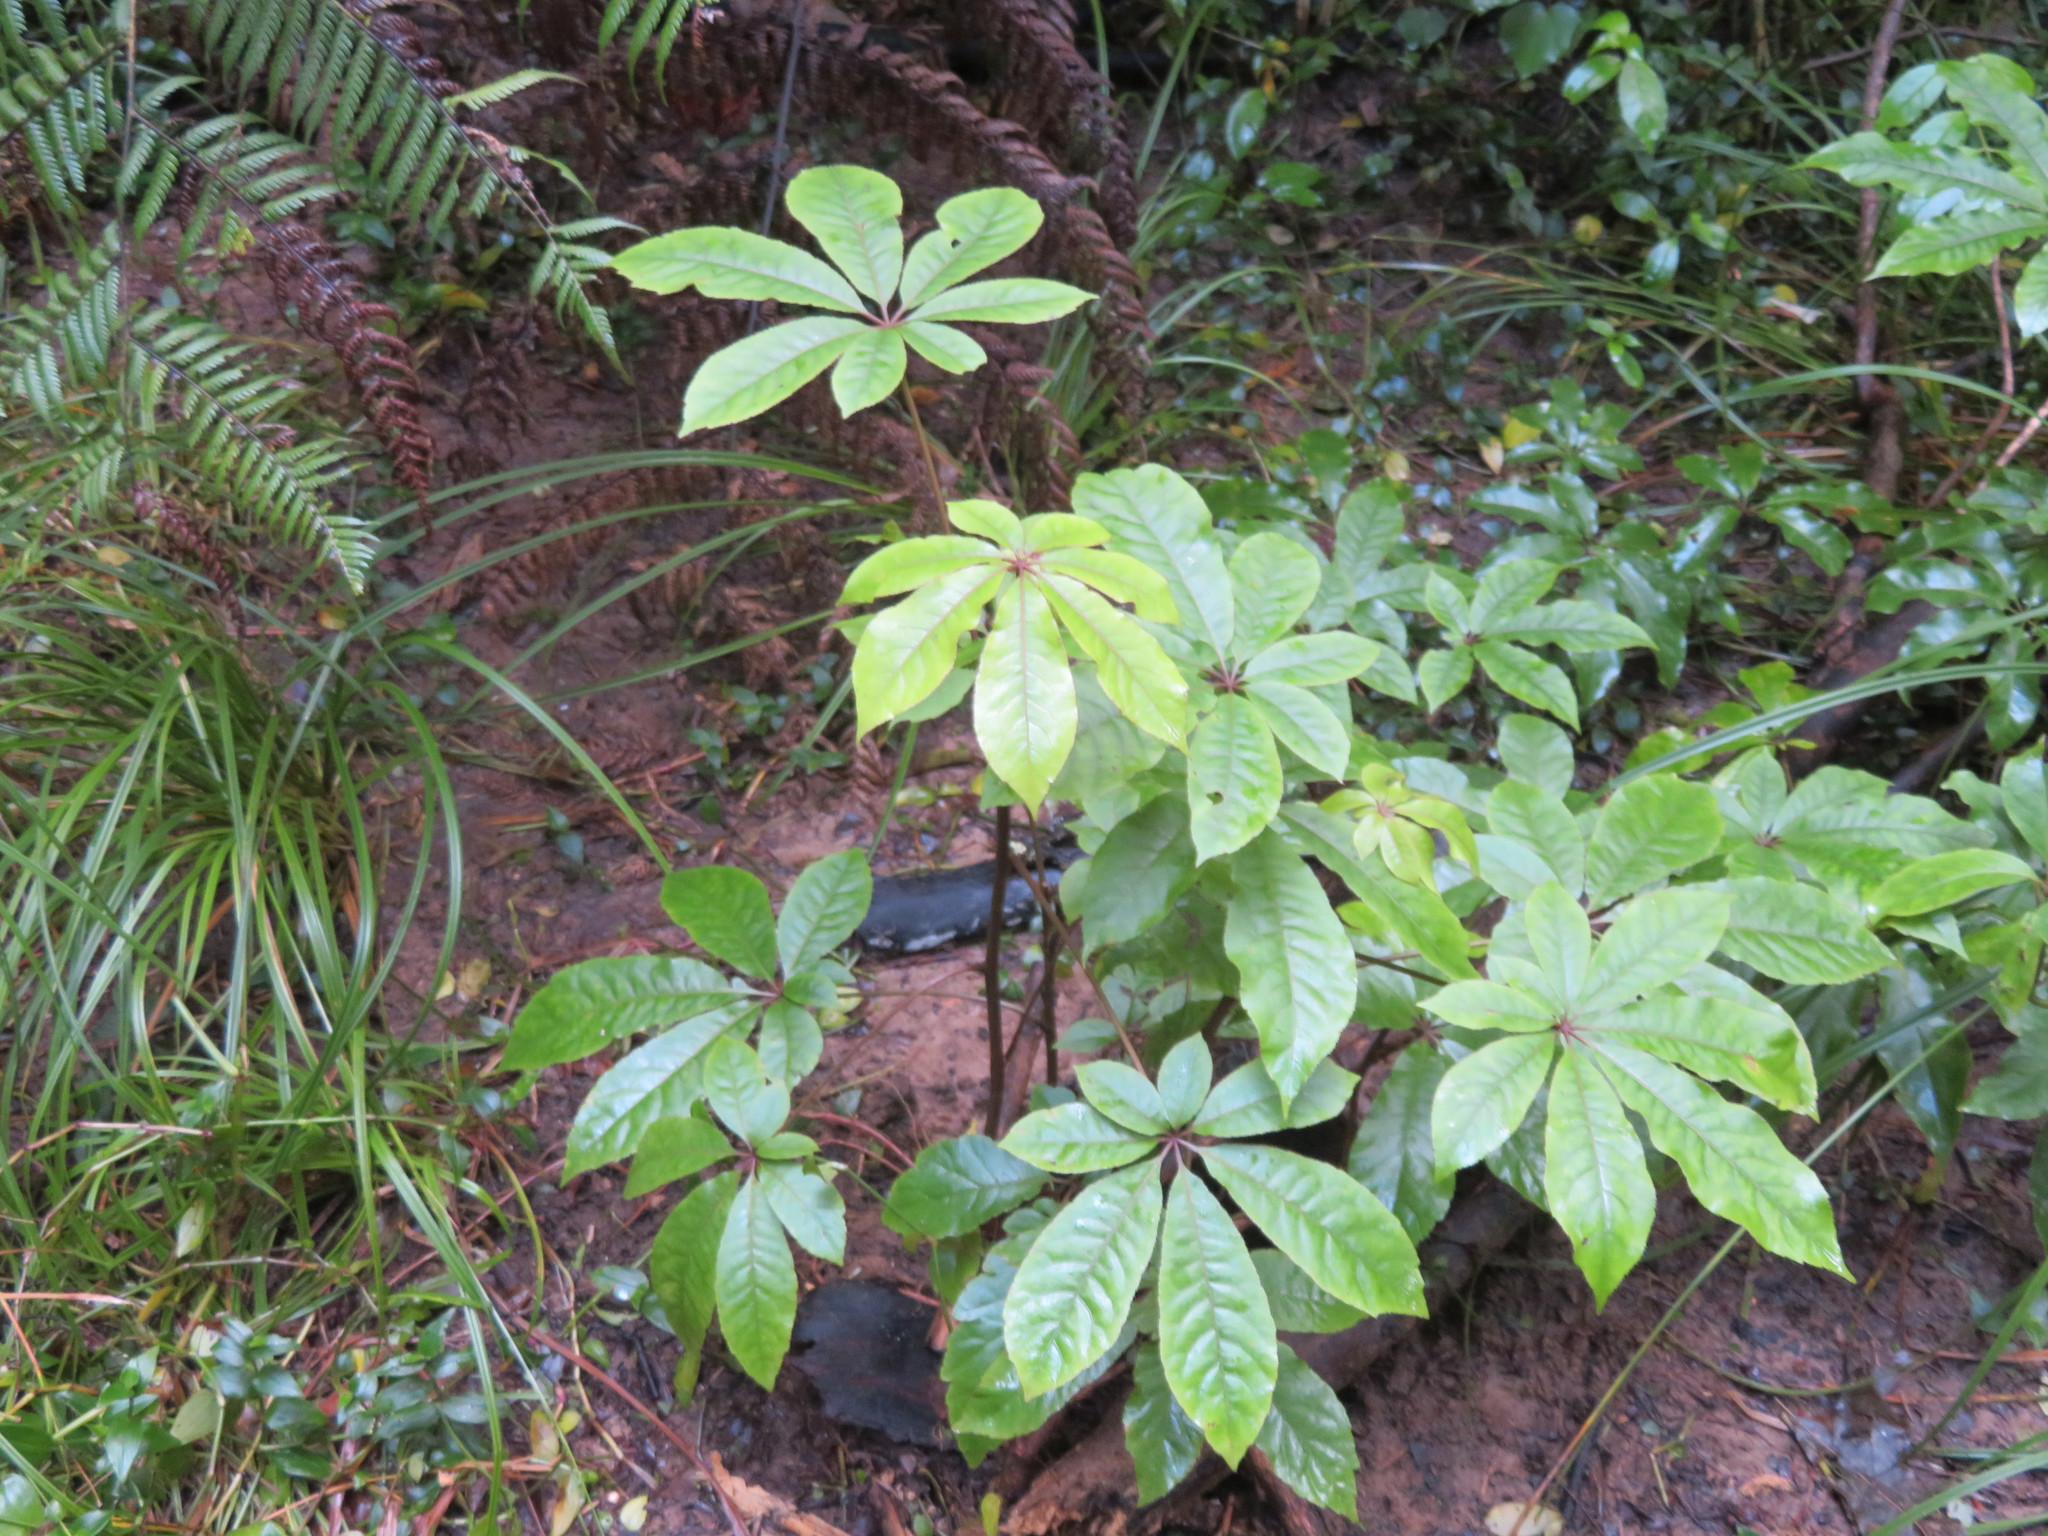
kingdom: Plantae
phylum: Tracheophyta
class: Magnoliopsida
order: Apiales
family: Araliaceae
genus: Schefflera
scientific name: Schefflera digitata
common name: Pate
